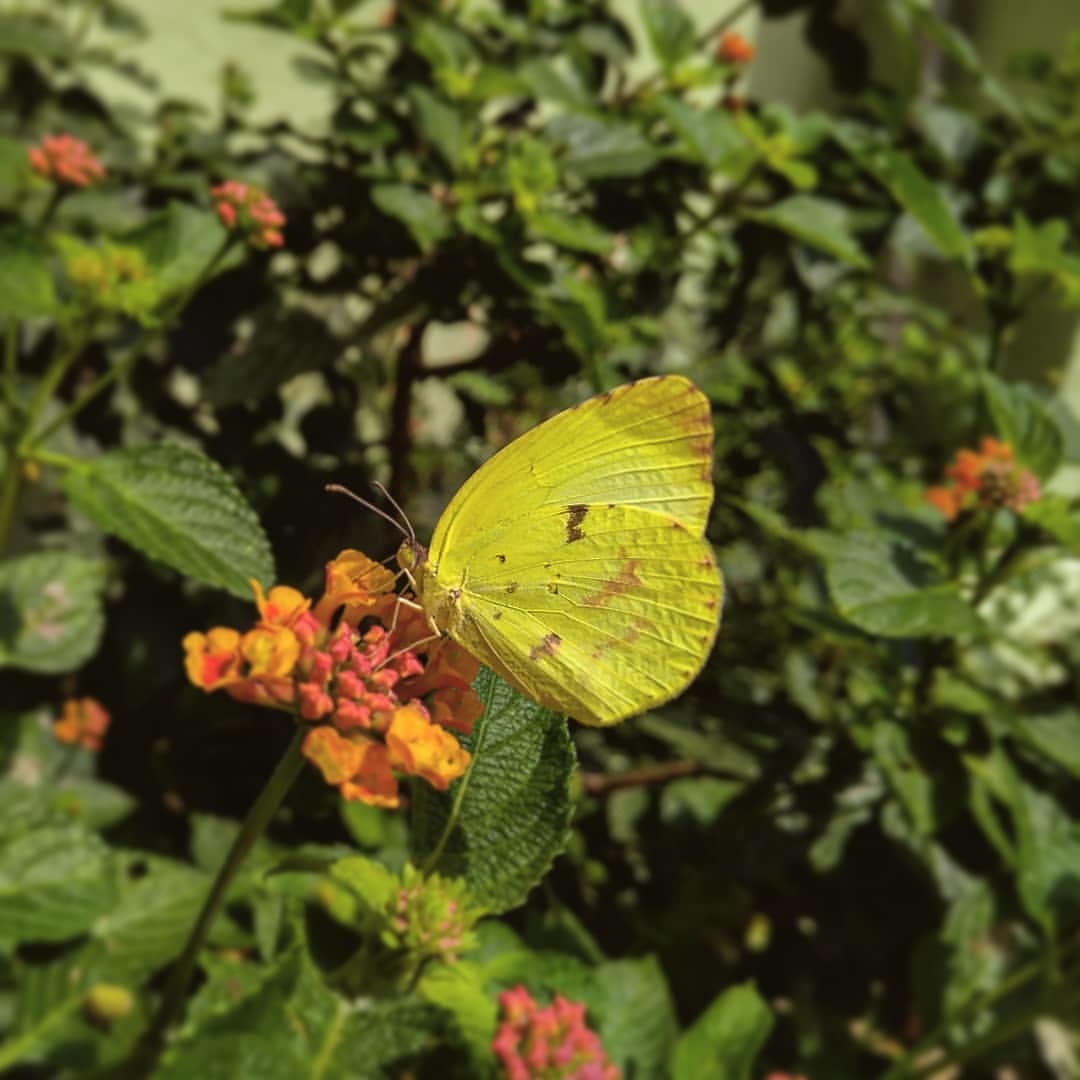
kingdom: Animalia
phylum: Arthropoda
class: Insecta
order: Lepidoptera
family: Pieridae
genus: Teriocolias
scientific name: Teriocolias
